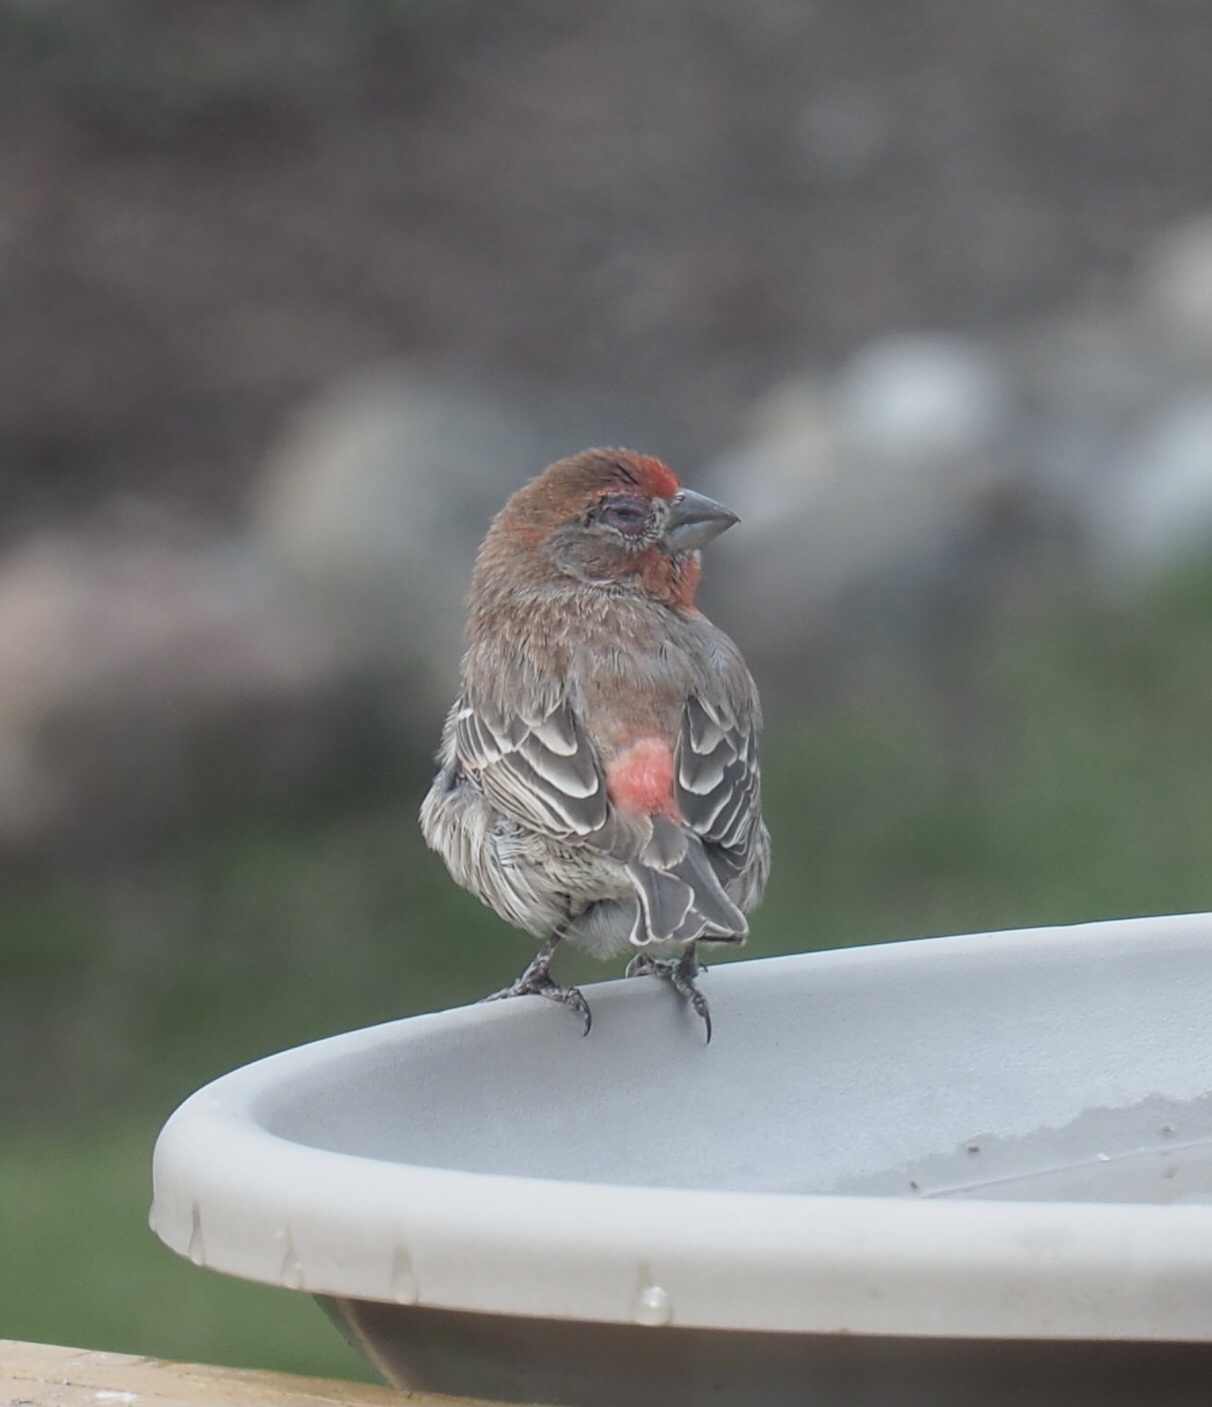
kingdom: Animalia
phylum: Chordata
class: Aves
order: Passeriformes
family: Fringillidae
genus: Haemorhous
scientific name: Haemorhous mexicanus
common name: House finch
